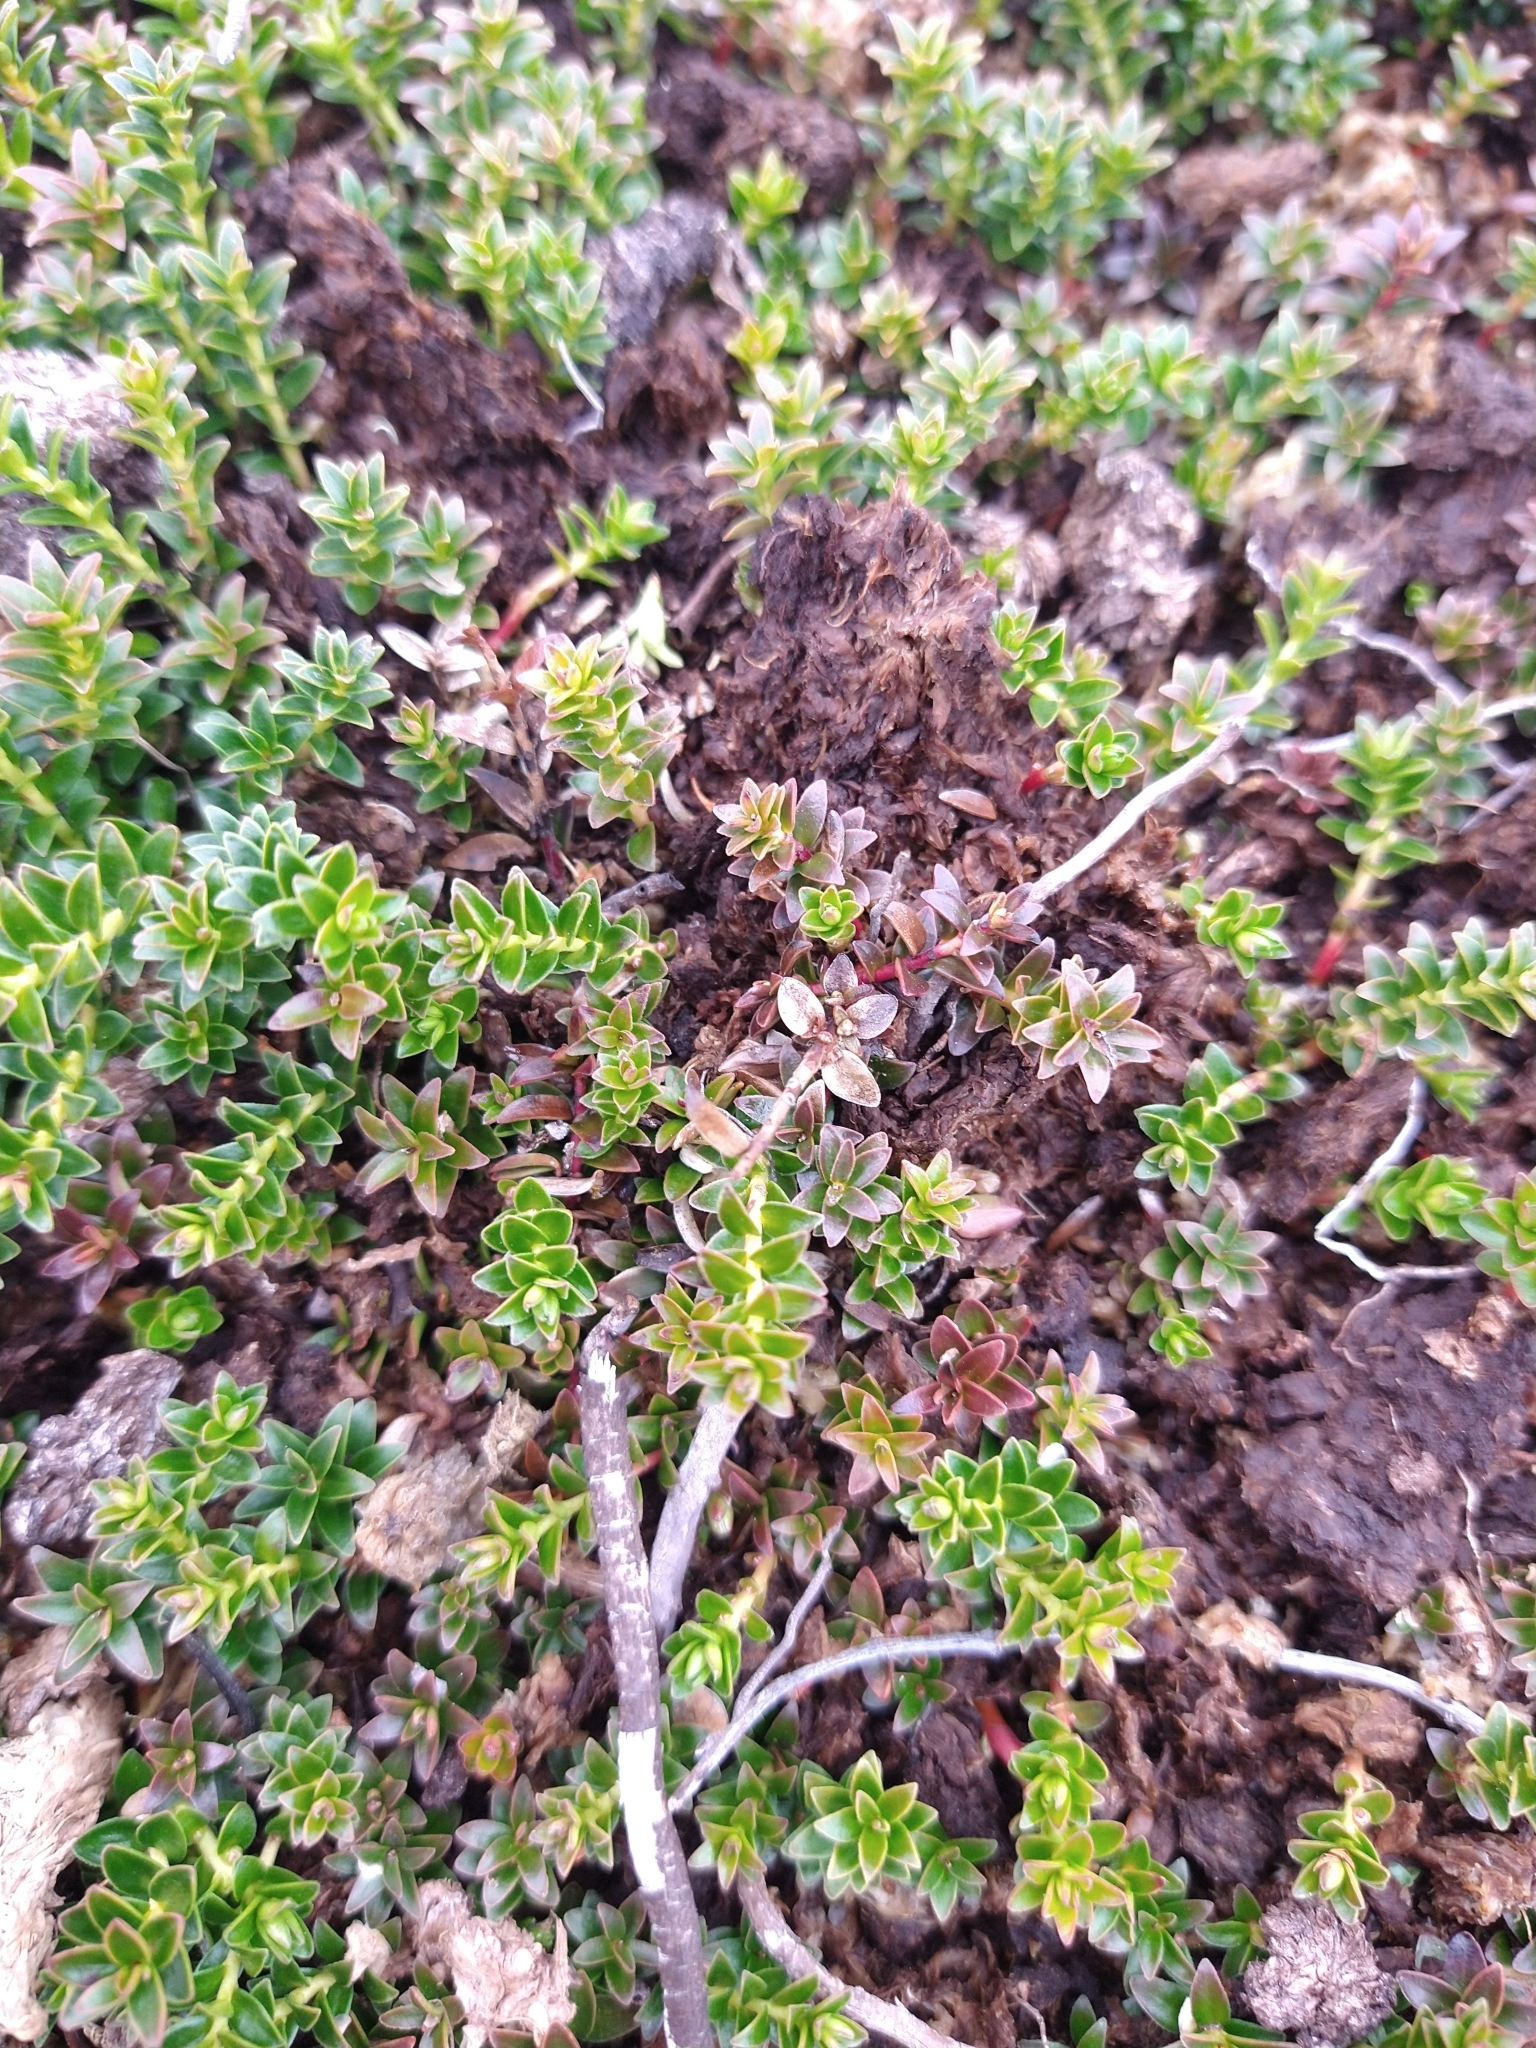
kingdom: Plantae
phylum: Tracheophyta
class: Magnoliopsida
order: Ericales
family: Ericaceae
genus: Gaultheria
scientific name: Gaultheria pumila
